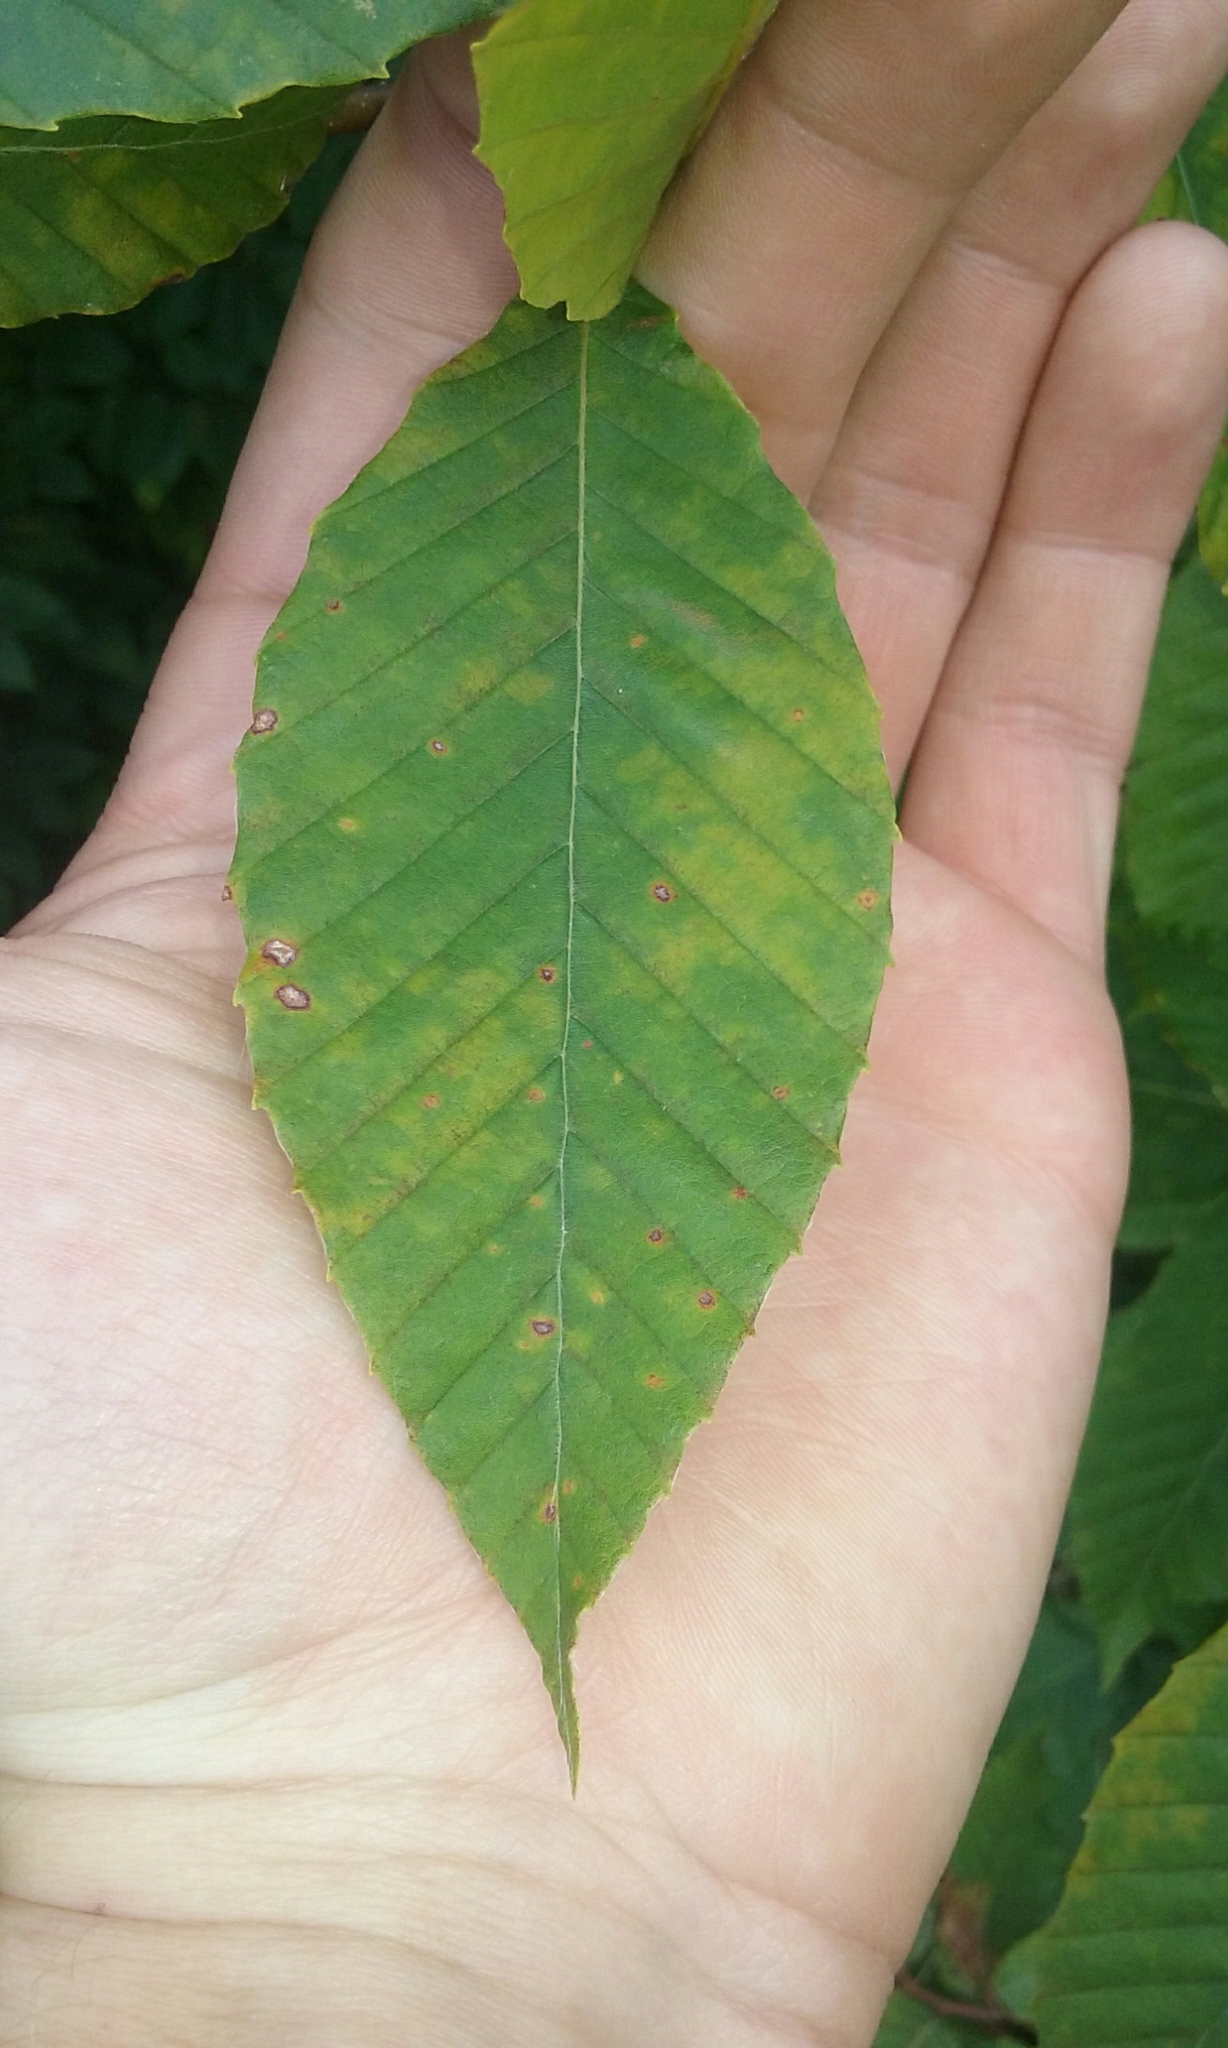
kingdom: Plantae
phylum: Tracheophyta
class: Magnoliopsida
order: Fagales
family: Fagaceae
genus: Fagus
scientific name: Fagus grandifolia
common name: American beech
